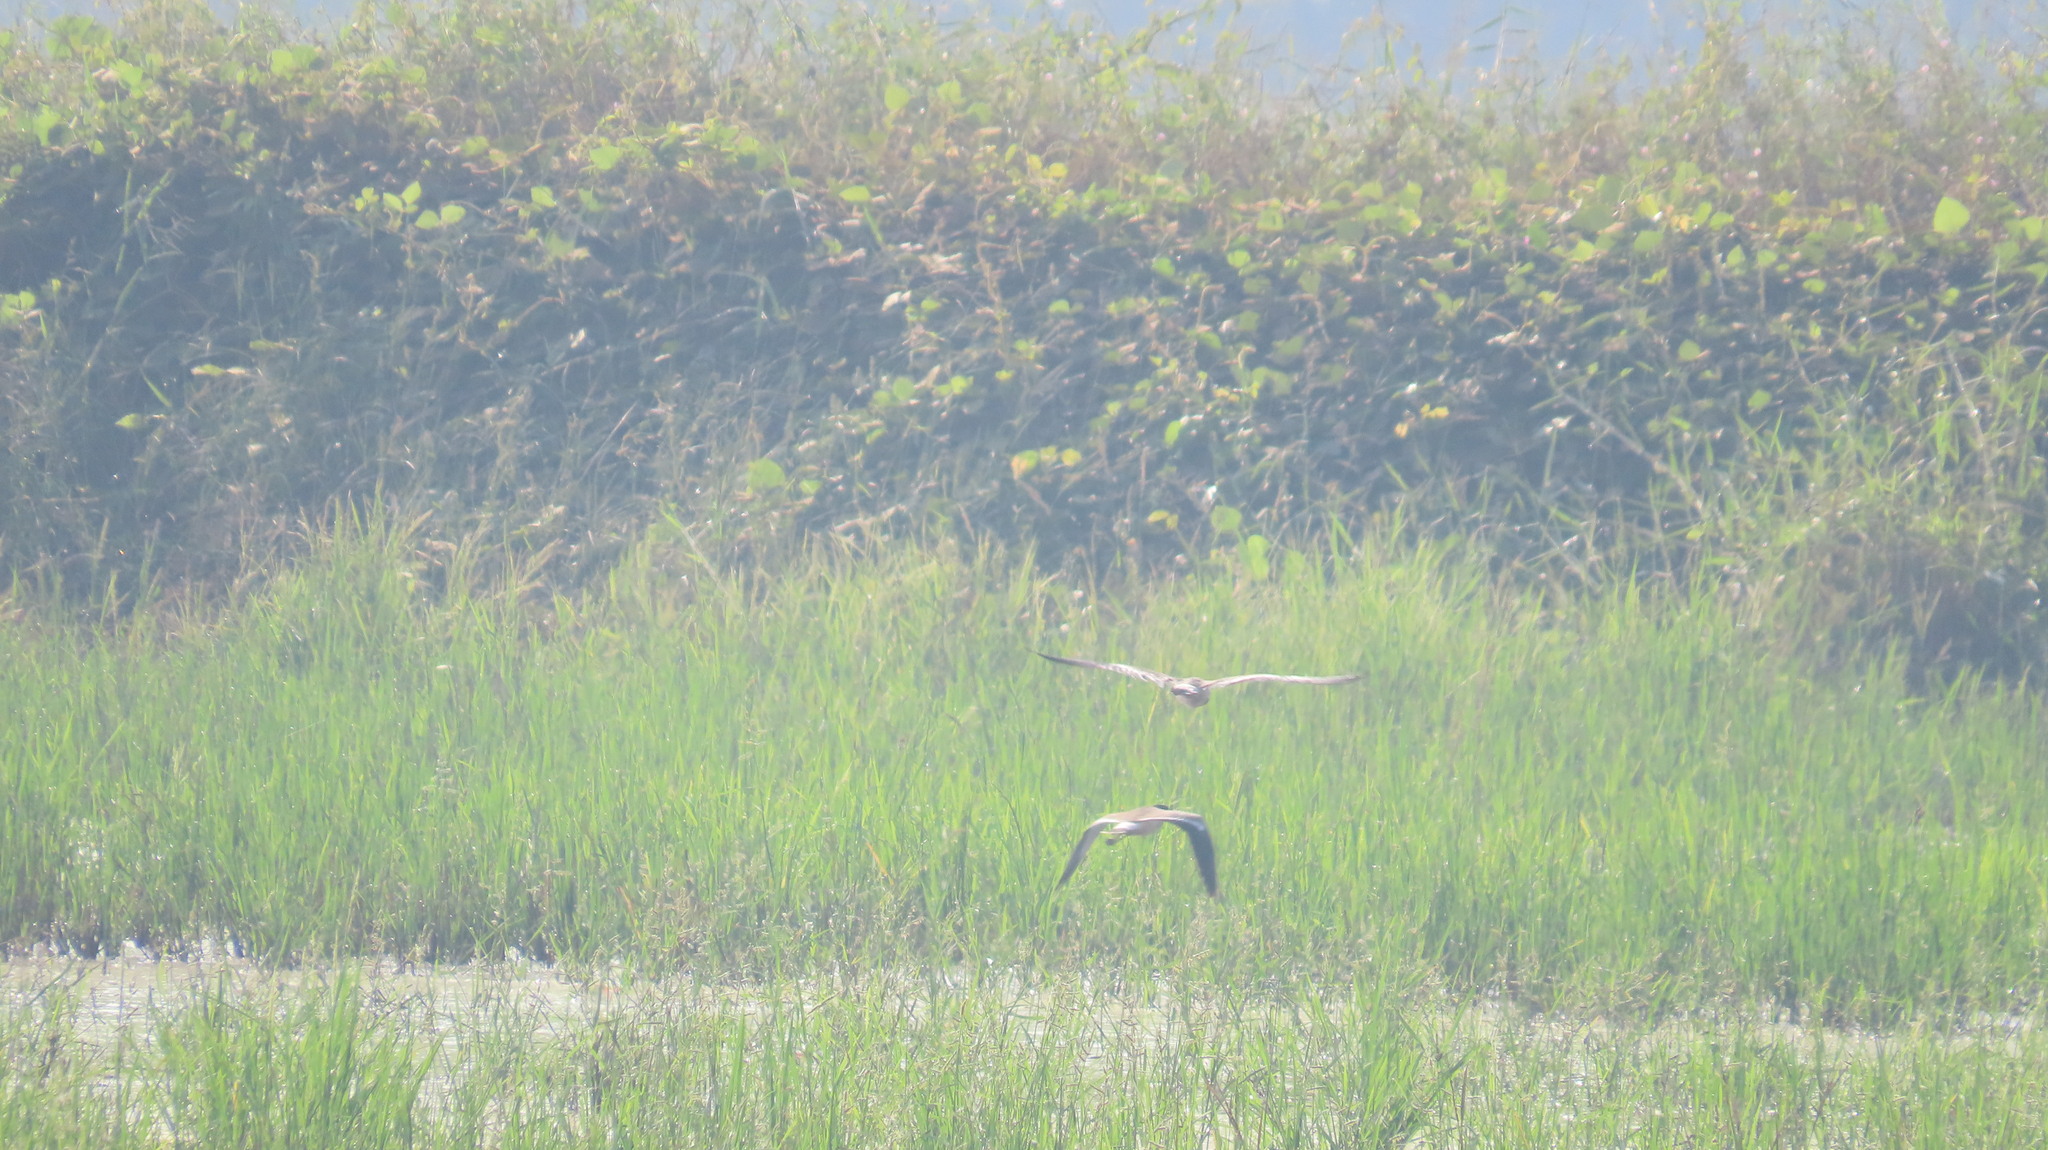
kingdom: Animalia
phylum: Chordata
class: Aves
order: Charadriiformes
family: Charadriidae
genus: Vanellus
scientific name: Vanellus indicus
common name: Red-wattled lapwing
